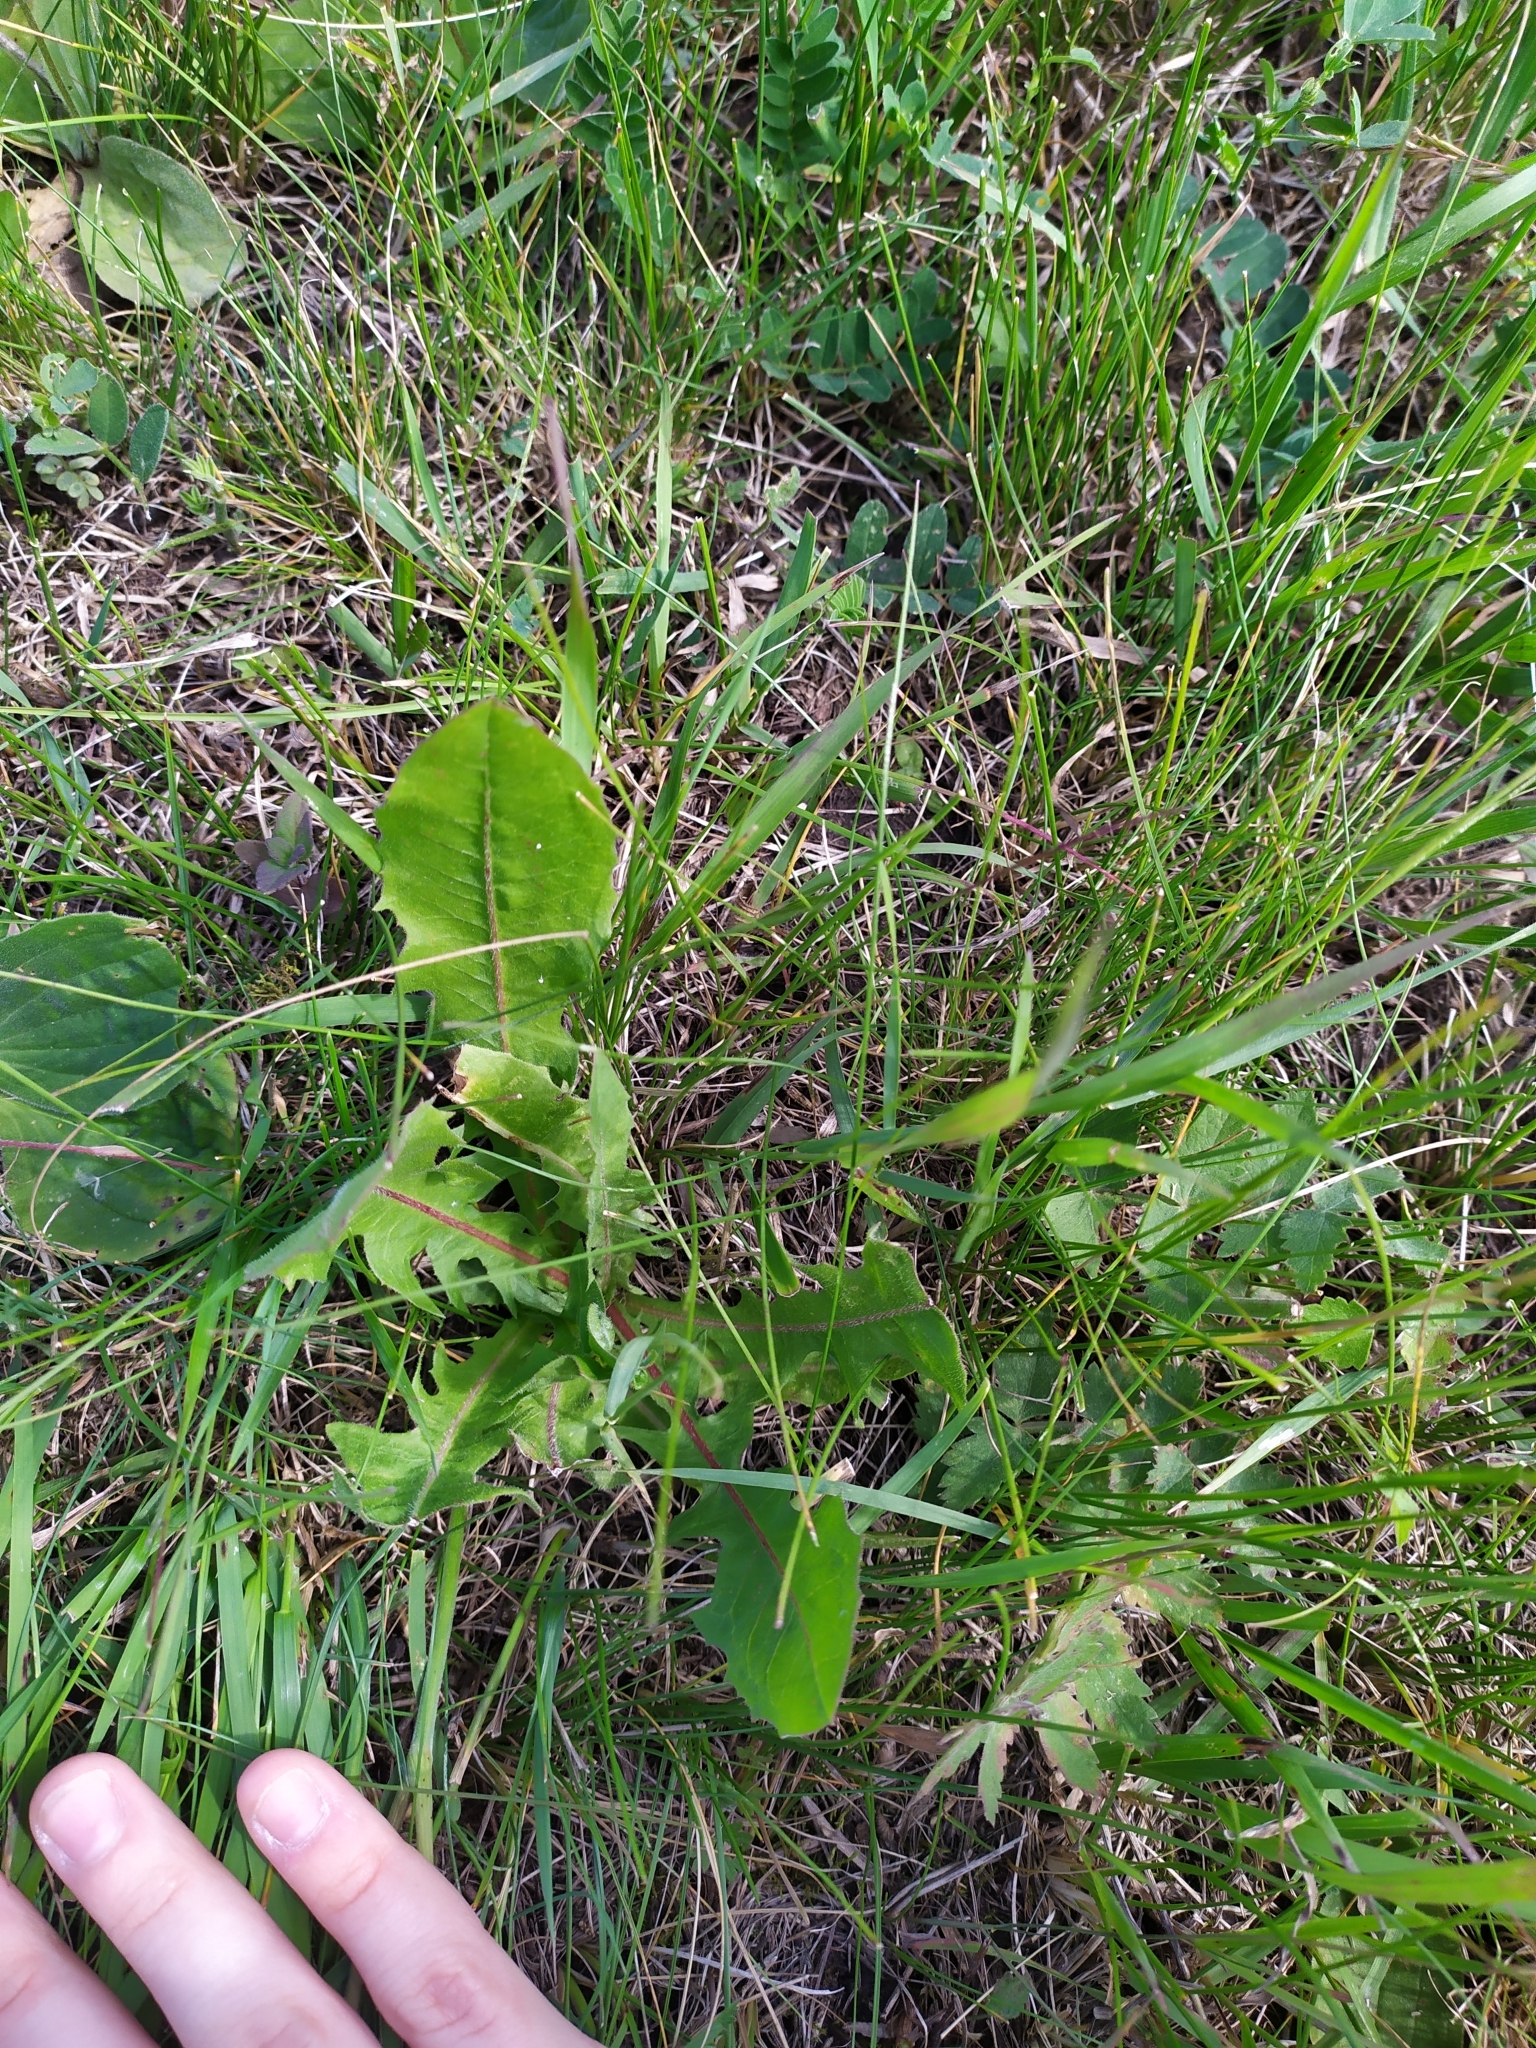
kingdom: Plantae
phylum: Tracheophyta
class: Magnoliopsida
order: Asterales
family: Asteraceae
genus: Taraxacum
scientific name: Taraxacum officinale
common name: Common dandelion
